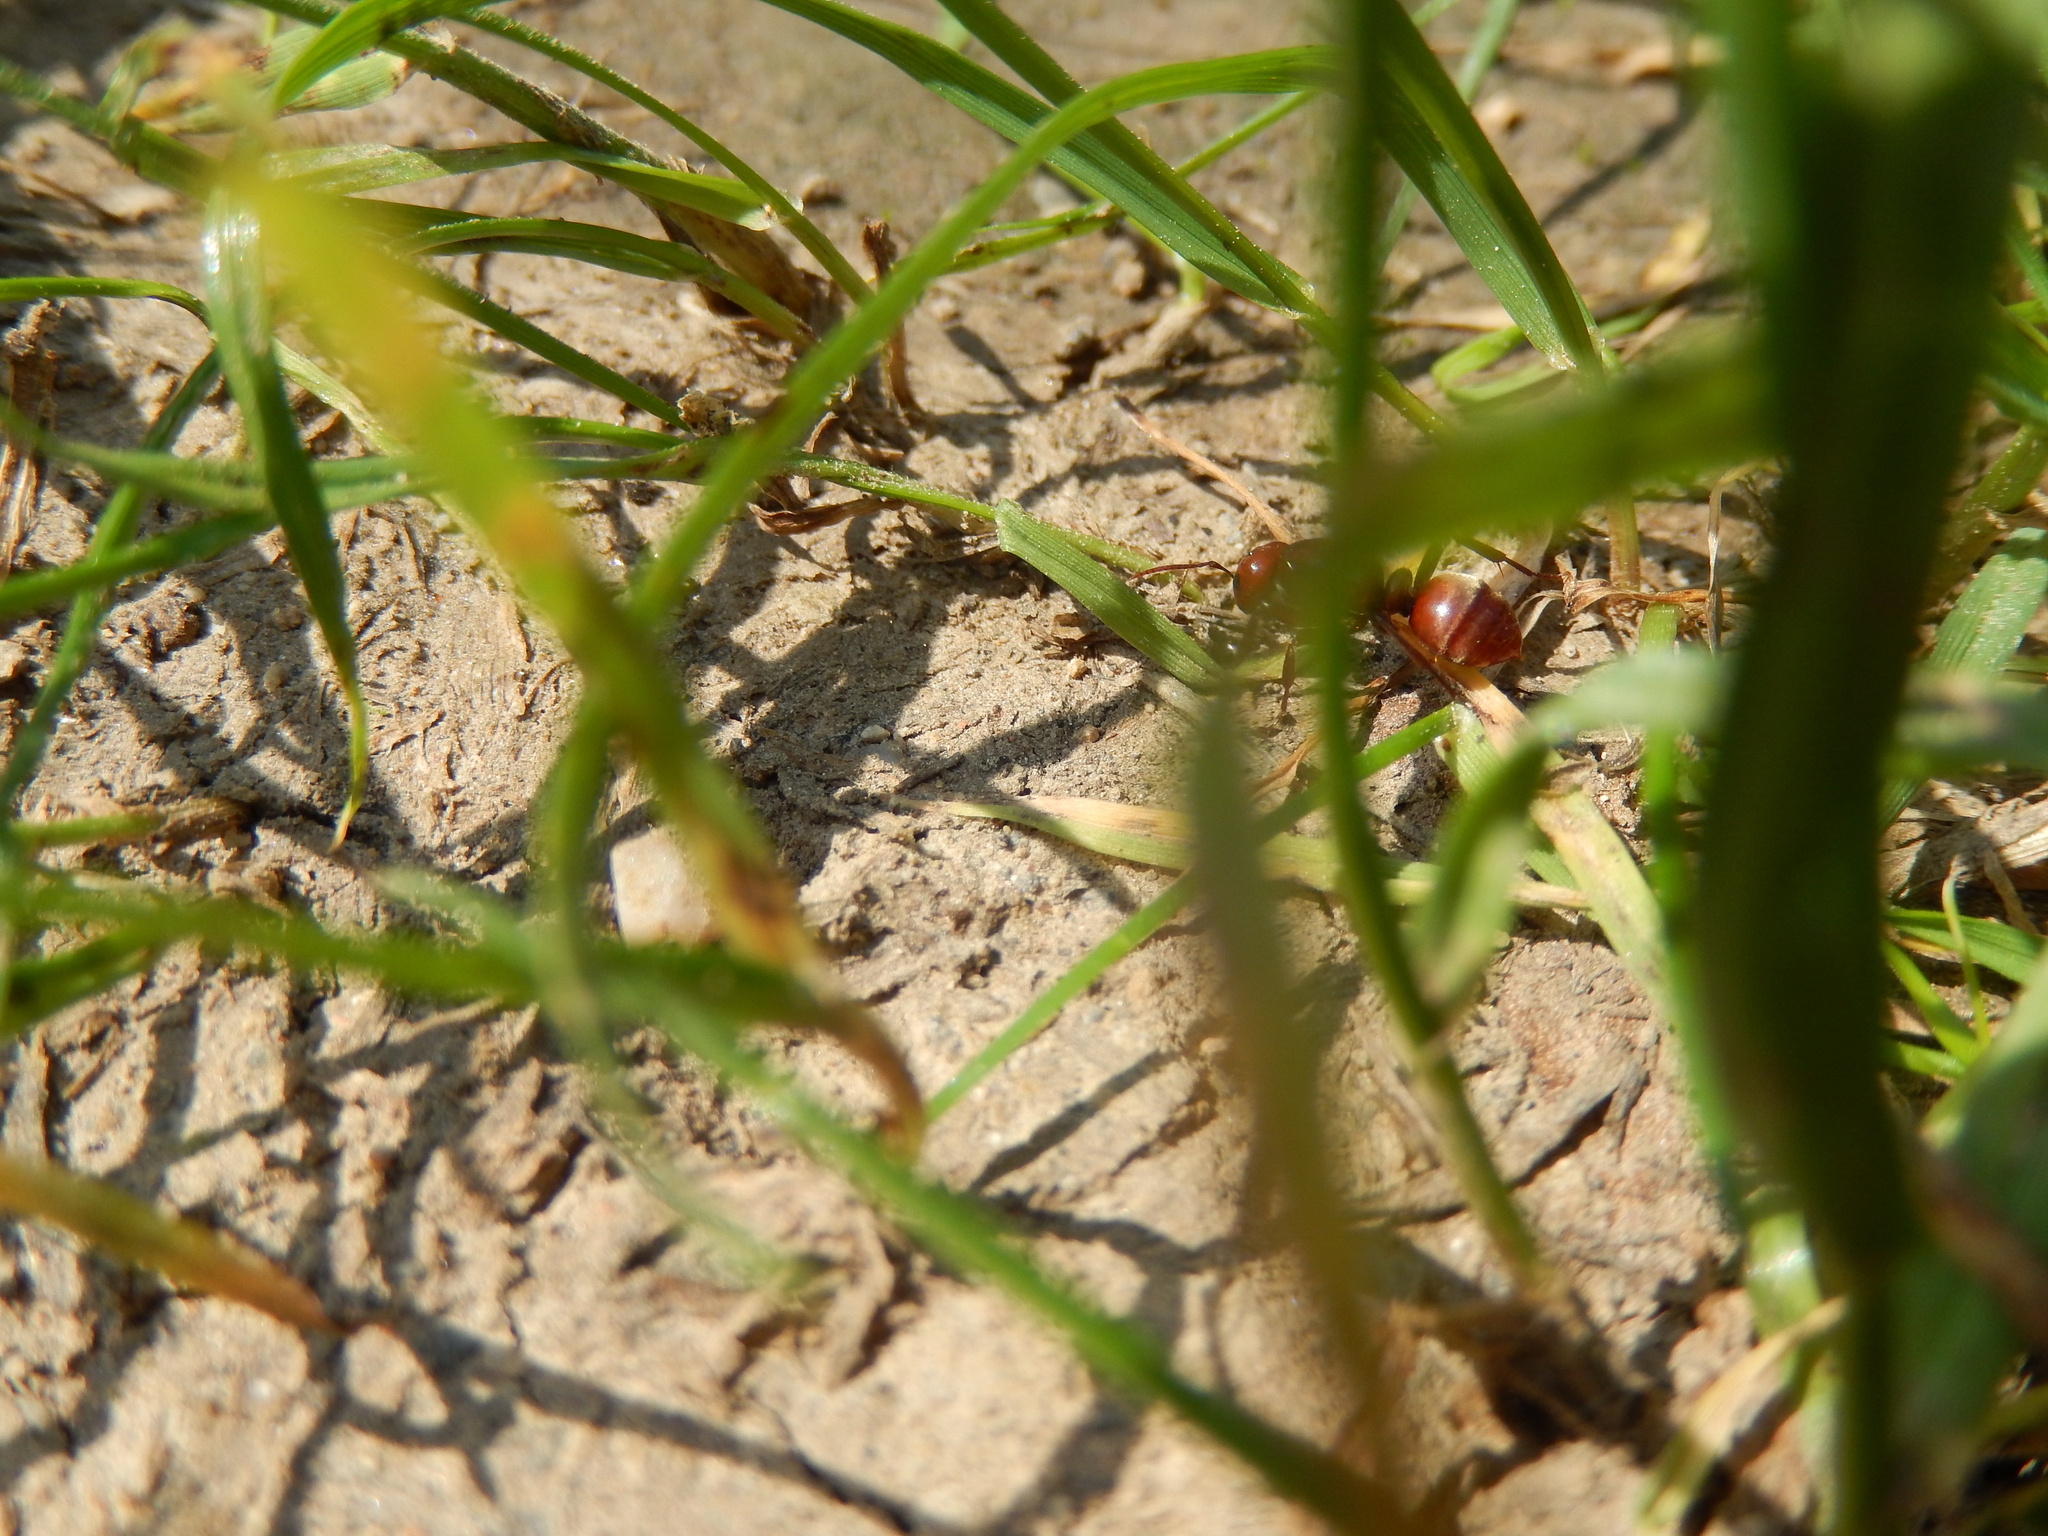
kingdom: Animalia
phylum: Arthropoda
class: Insecta
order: Hymenoptera
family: Formicidae
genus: Polyergus
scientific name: Polyergus rufescens
